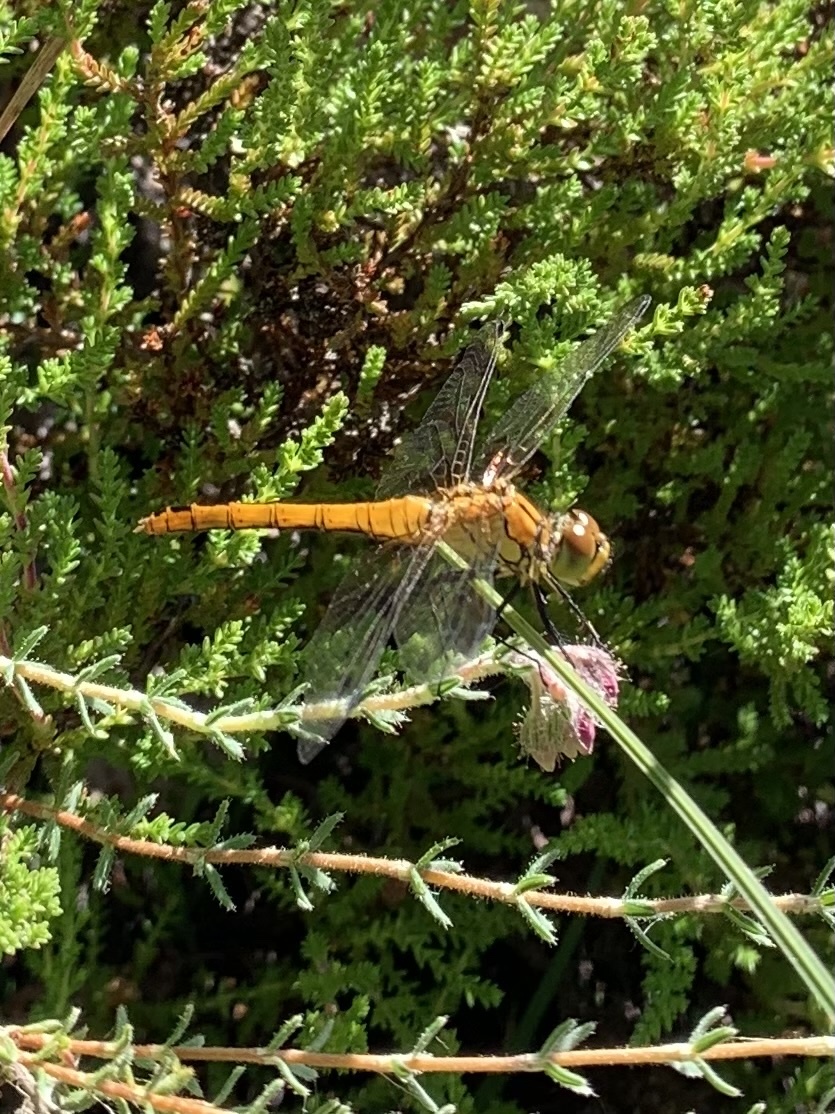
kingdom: Animalia
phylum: Arthropoda
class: Insecta
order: Odonata
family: Libellulidae
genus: Sympetrum
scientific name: Sympetrum sanguineum
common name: Ruddy darter
